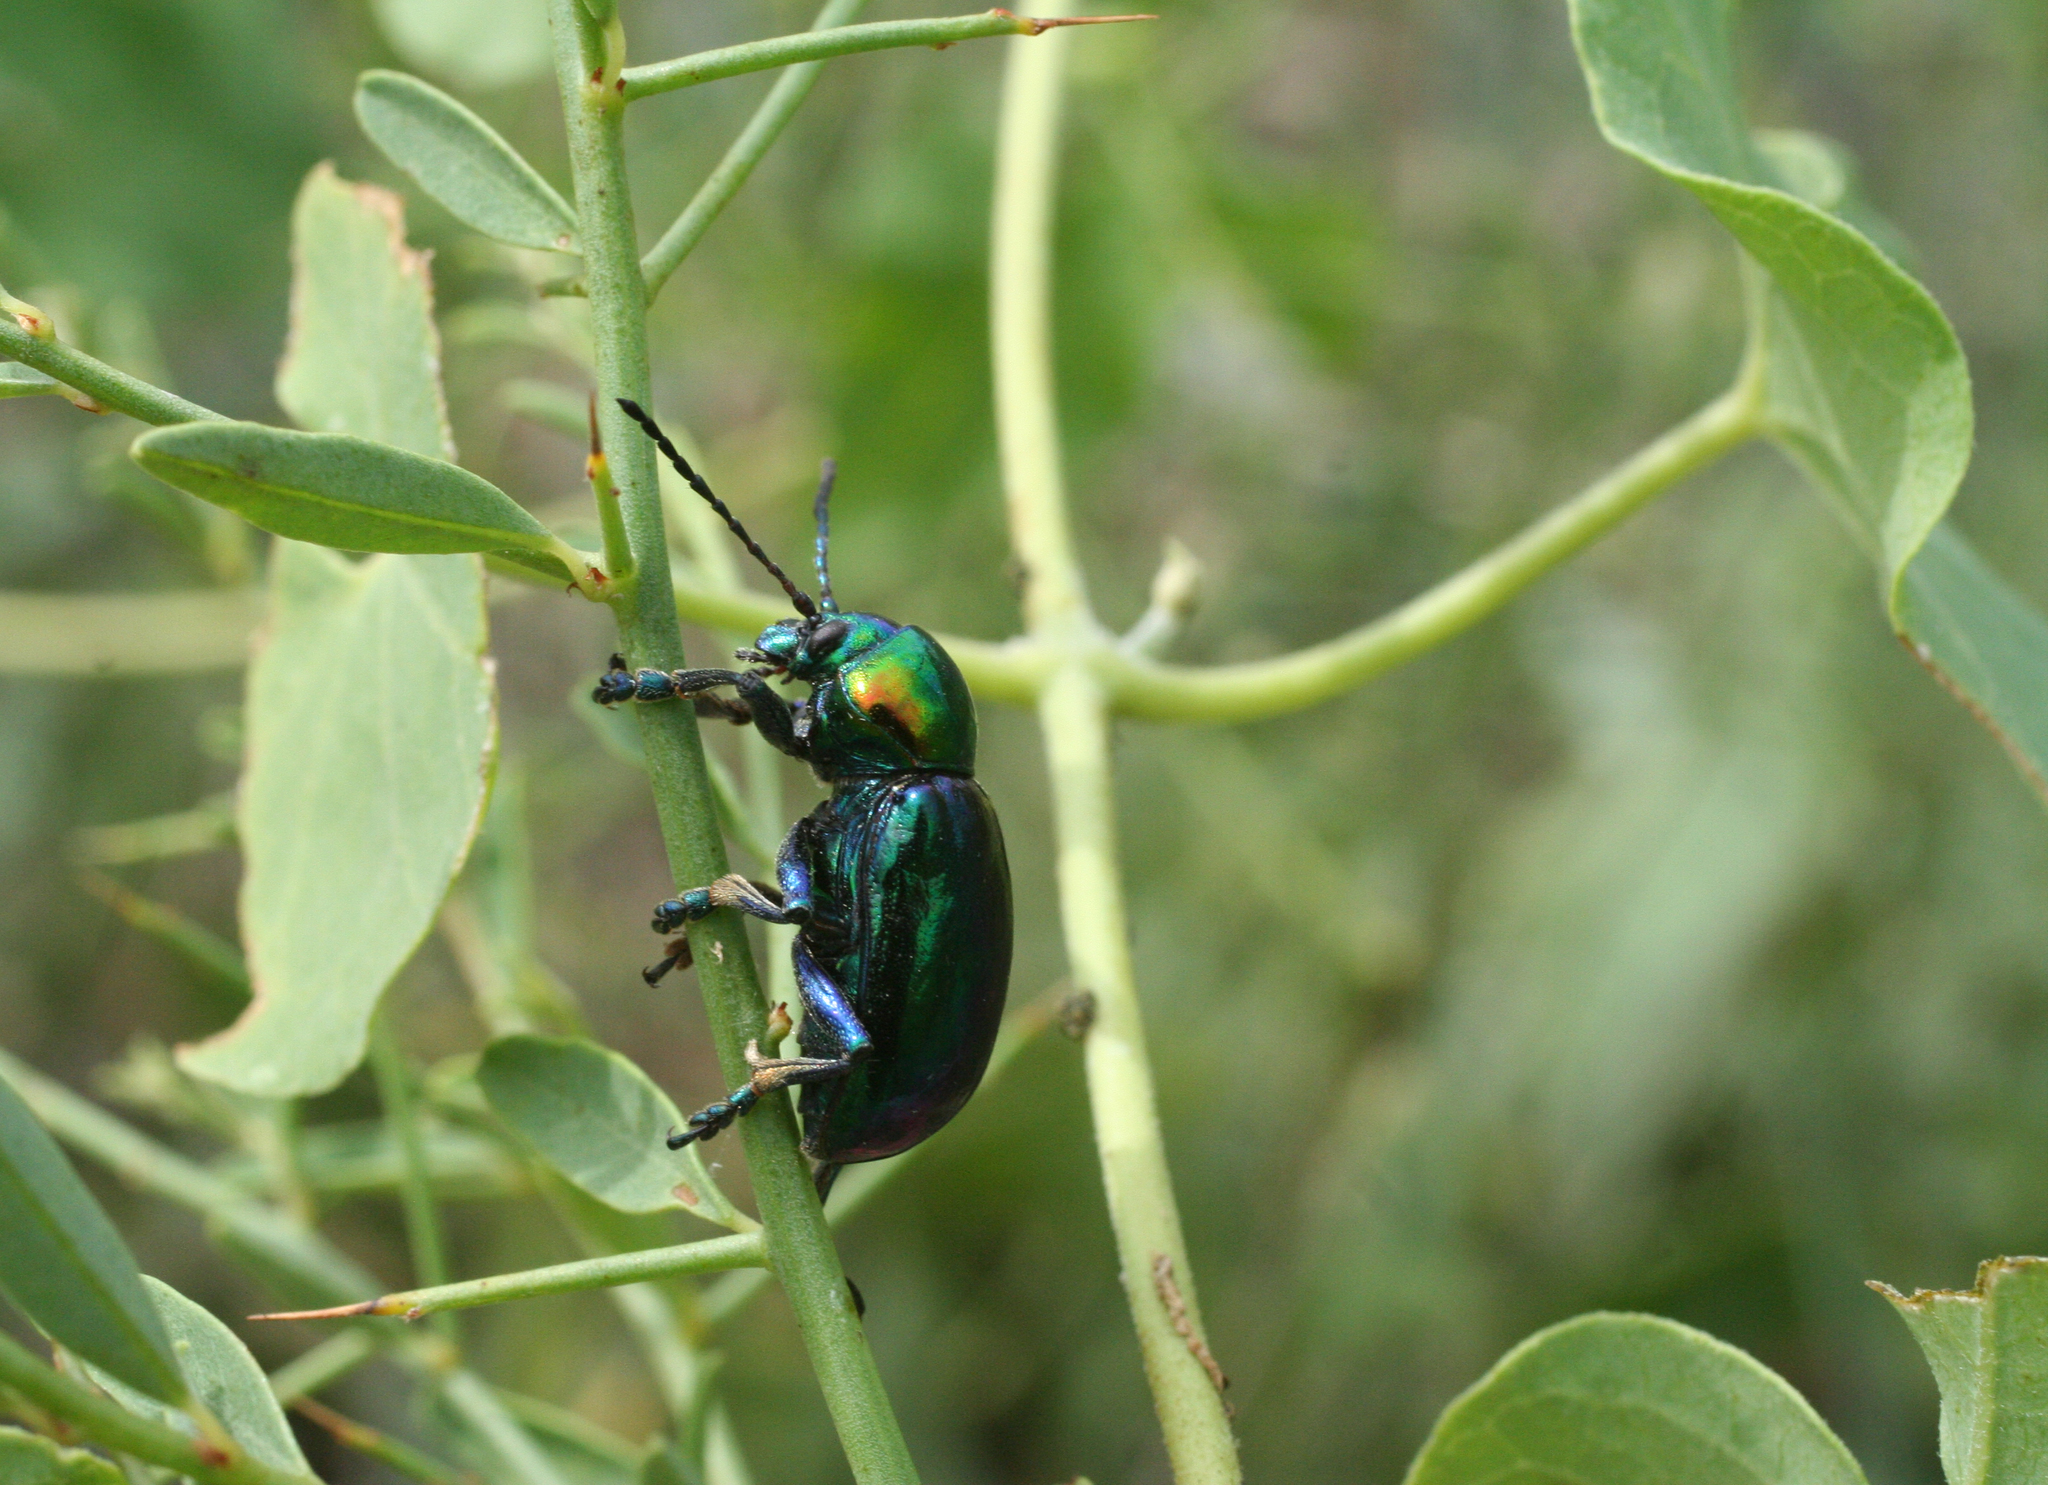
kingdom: Animalia
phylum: Arthropoda
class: Insecta
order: Coleoptera
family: Chrysomelidae
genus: Chrysochares
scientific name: Chrysochares
